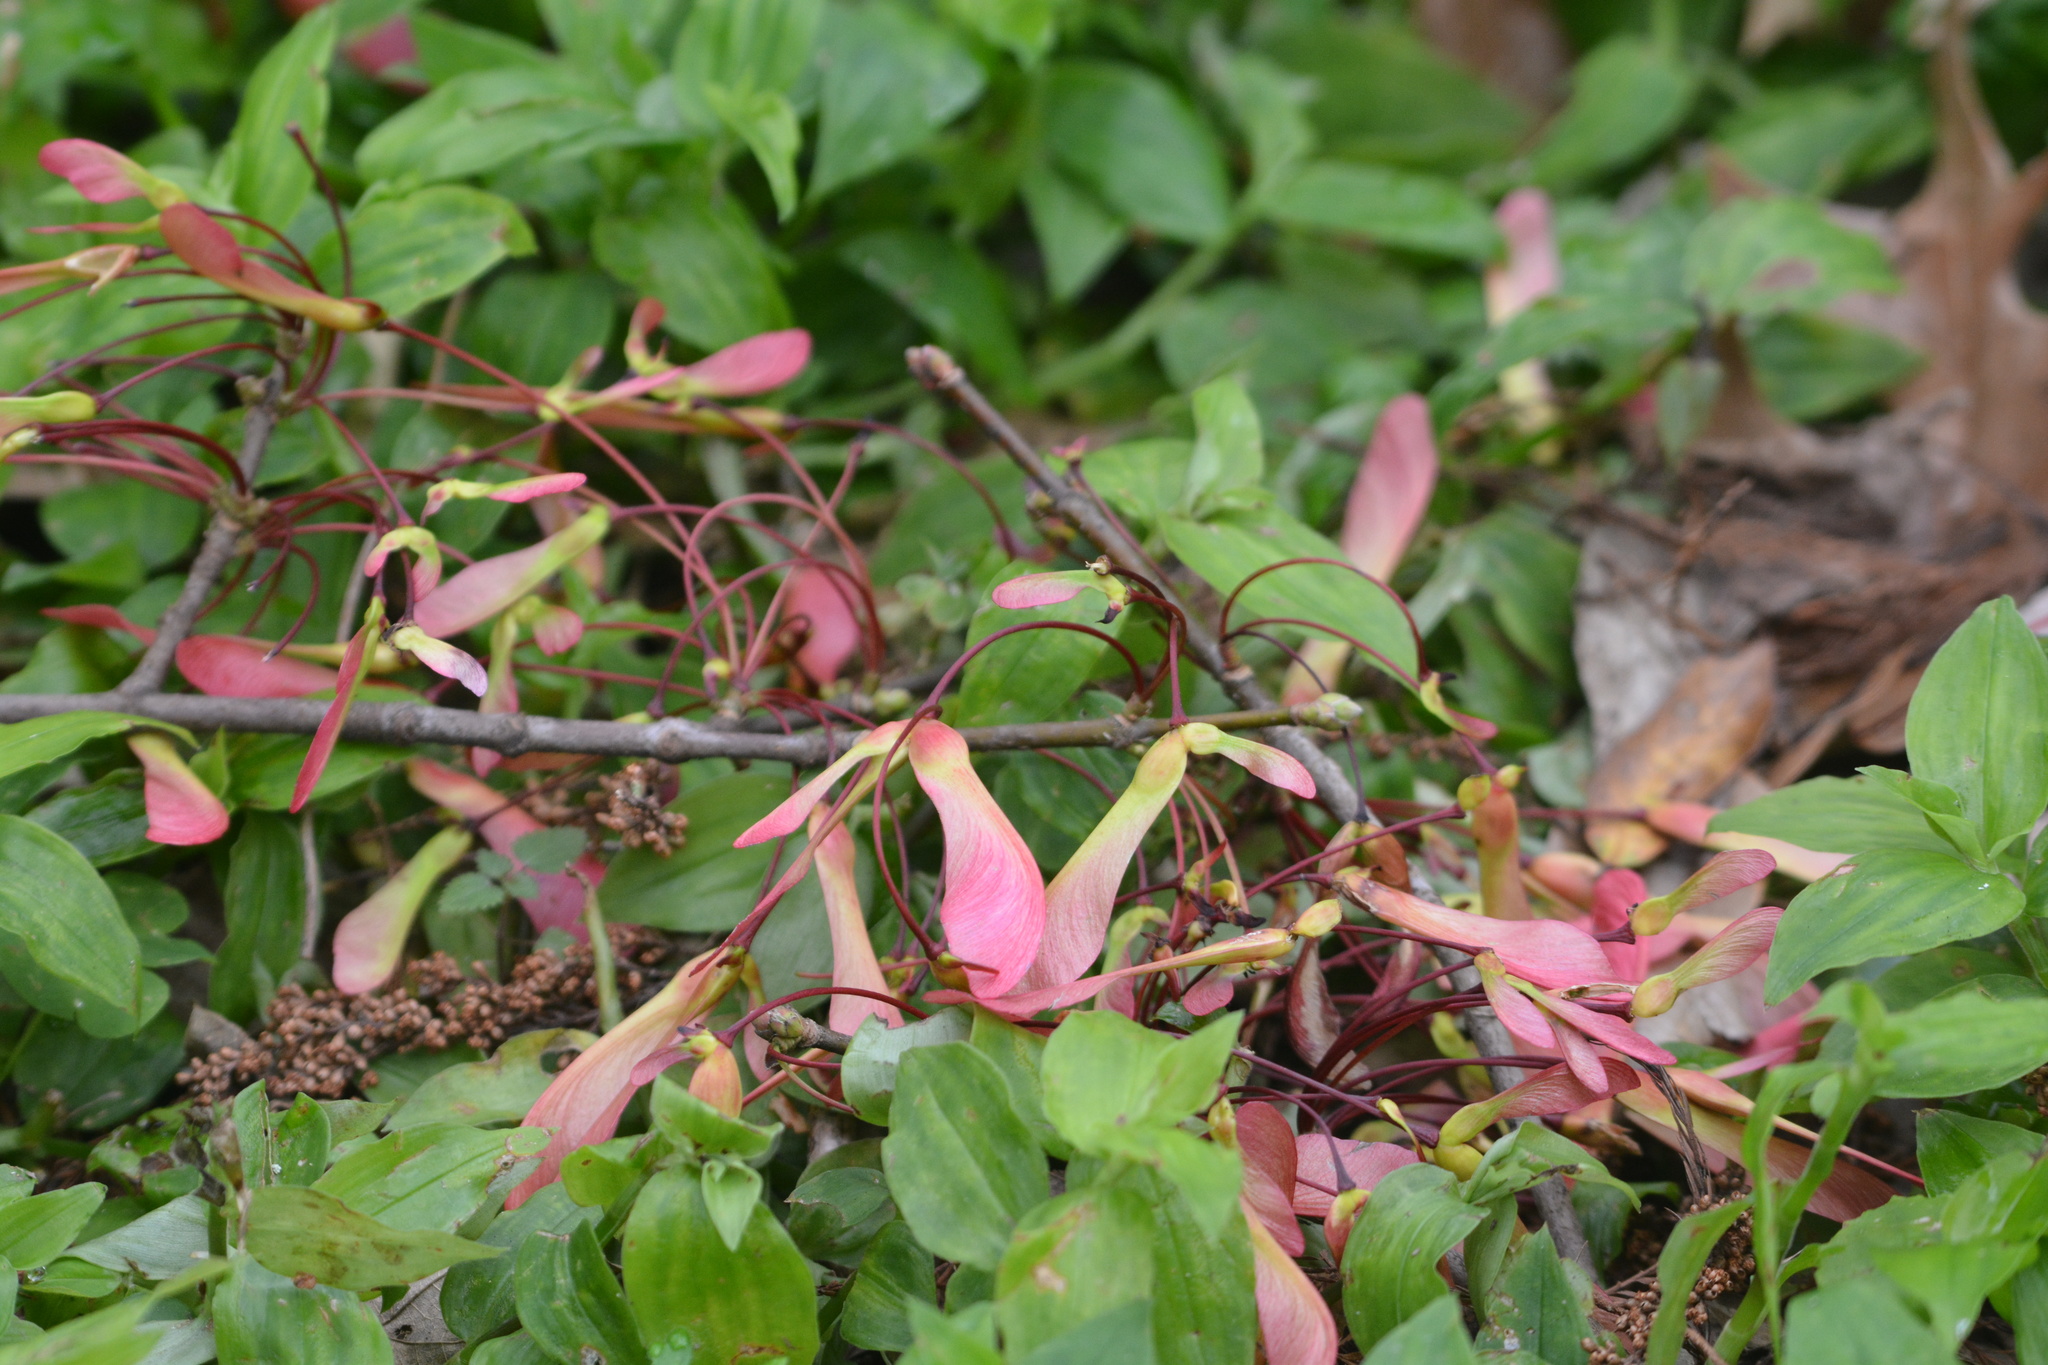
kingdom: Plantae
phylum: Tracheophyta
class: Magnoliopsida
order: Sapindales
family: Sapindaceae
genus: Acer
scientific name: Acer rubrum
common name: Red maple
